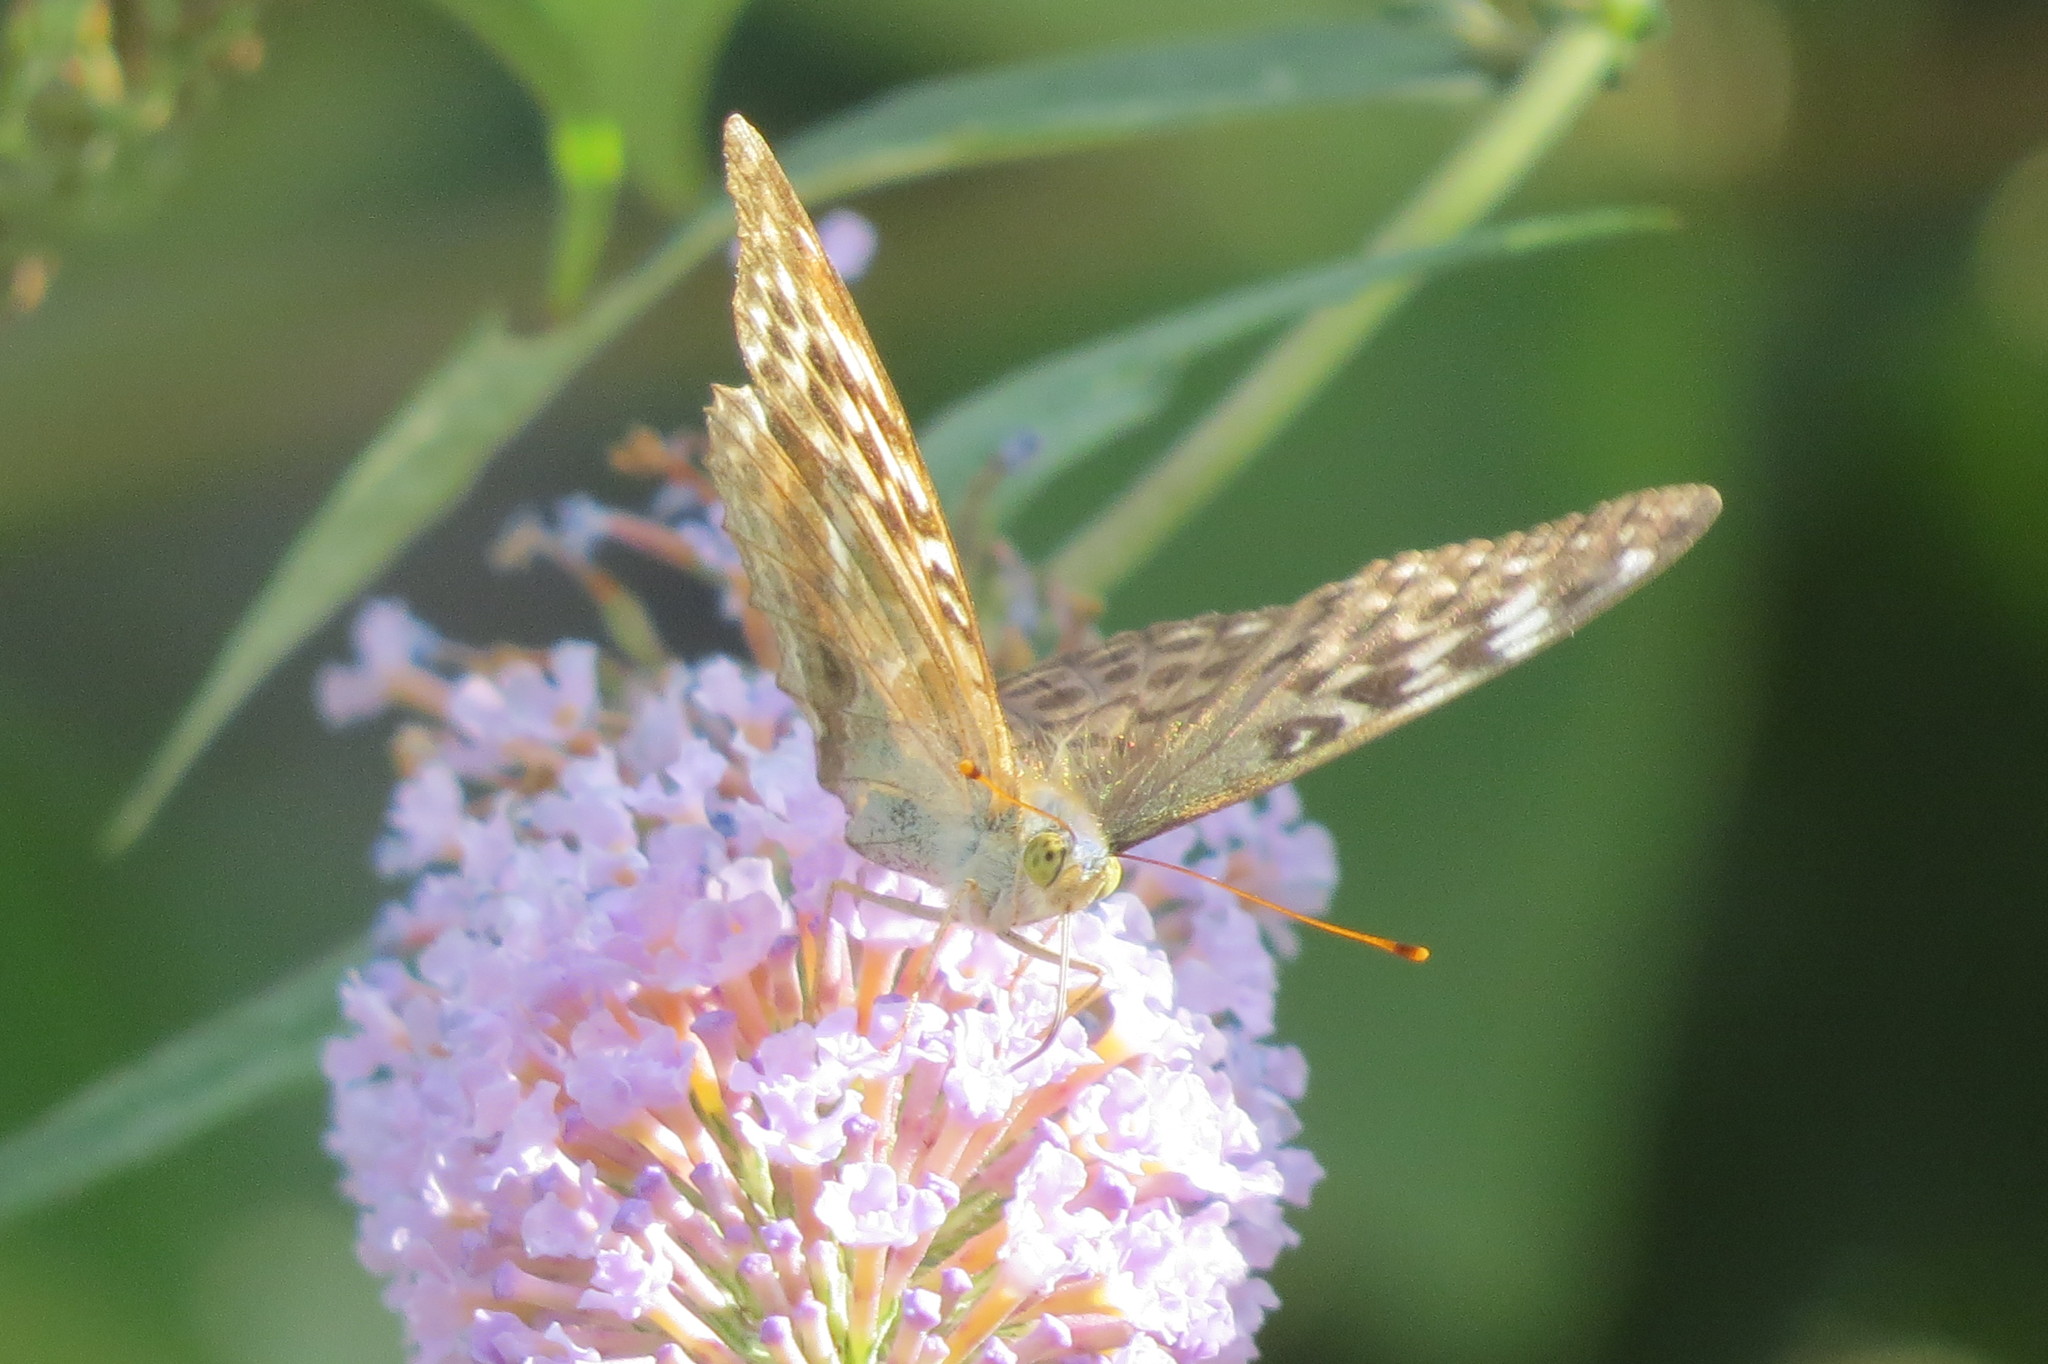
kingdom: Animalia
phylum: Arthropoda
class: Insecta
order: Lepidoptera
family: Nymphalidae
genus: Argynnis
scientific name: Argynnis paphia
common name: Silver-washed fritillary
